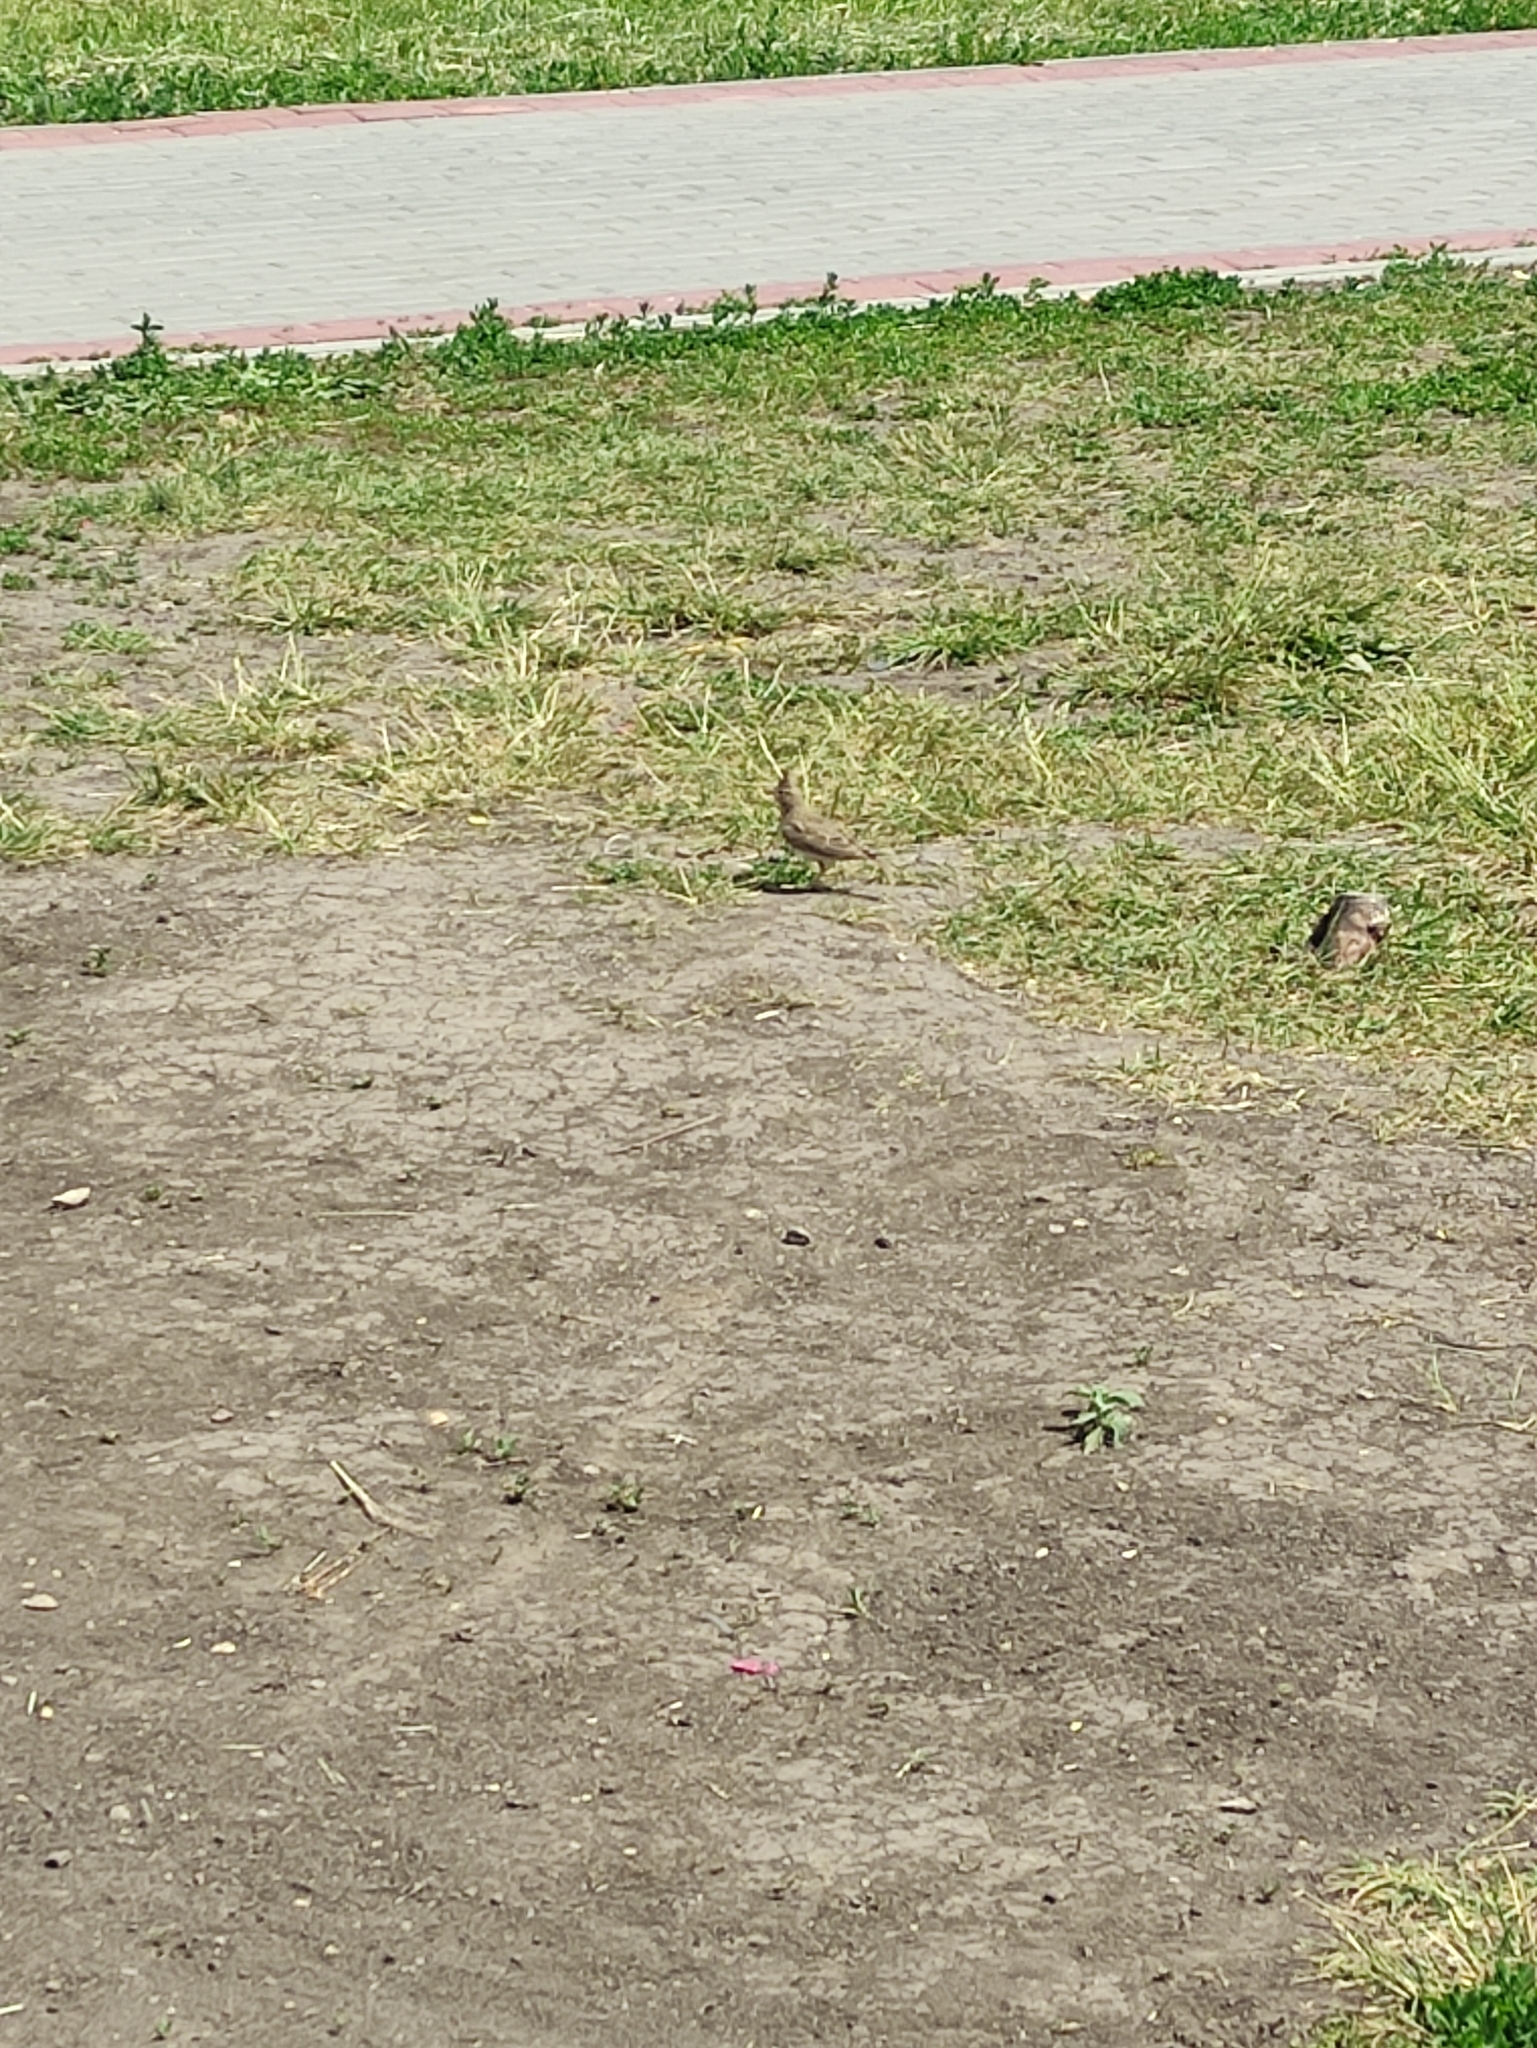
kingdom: Animalia
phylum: Chordata
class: Aves
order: Passeriformes
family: Alaudidae
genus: Galerida
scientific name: Galerida cristata
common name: Crested lark
